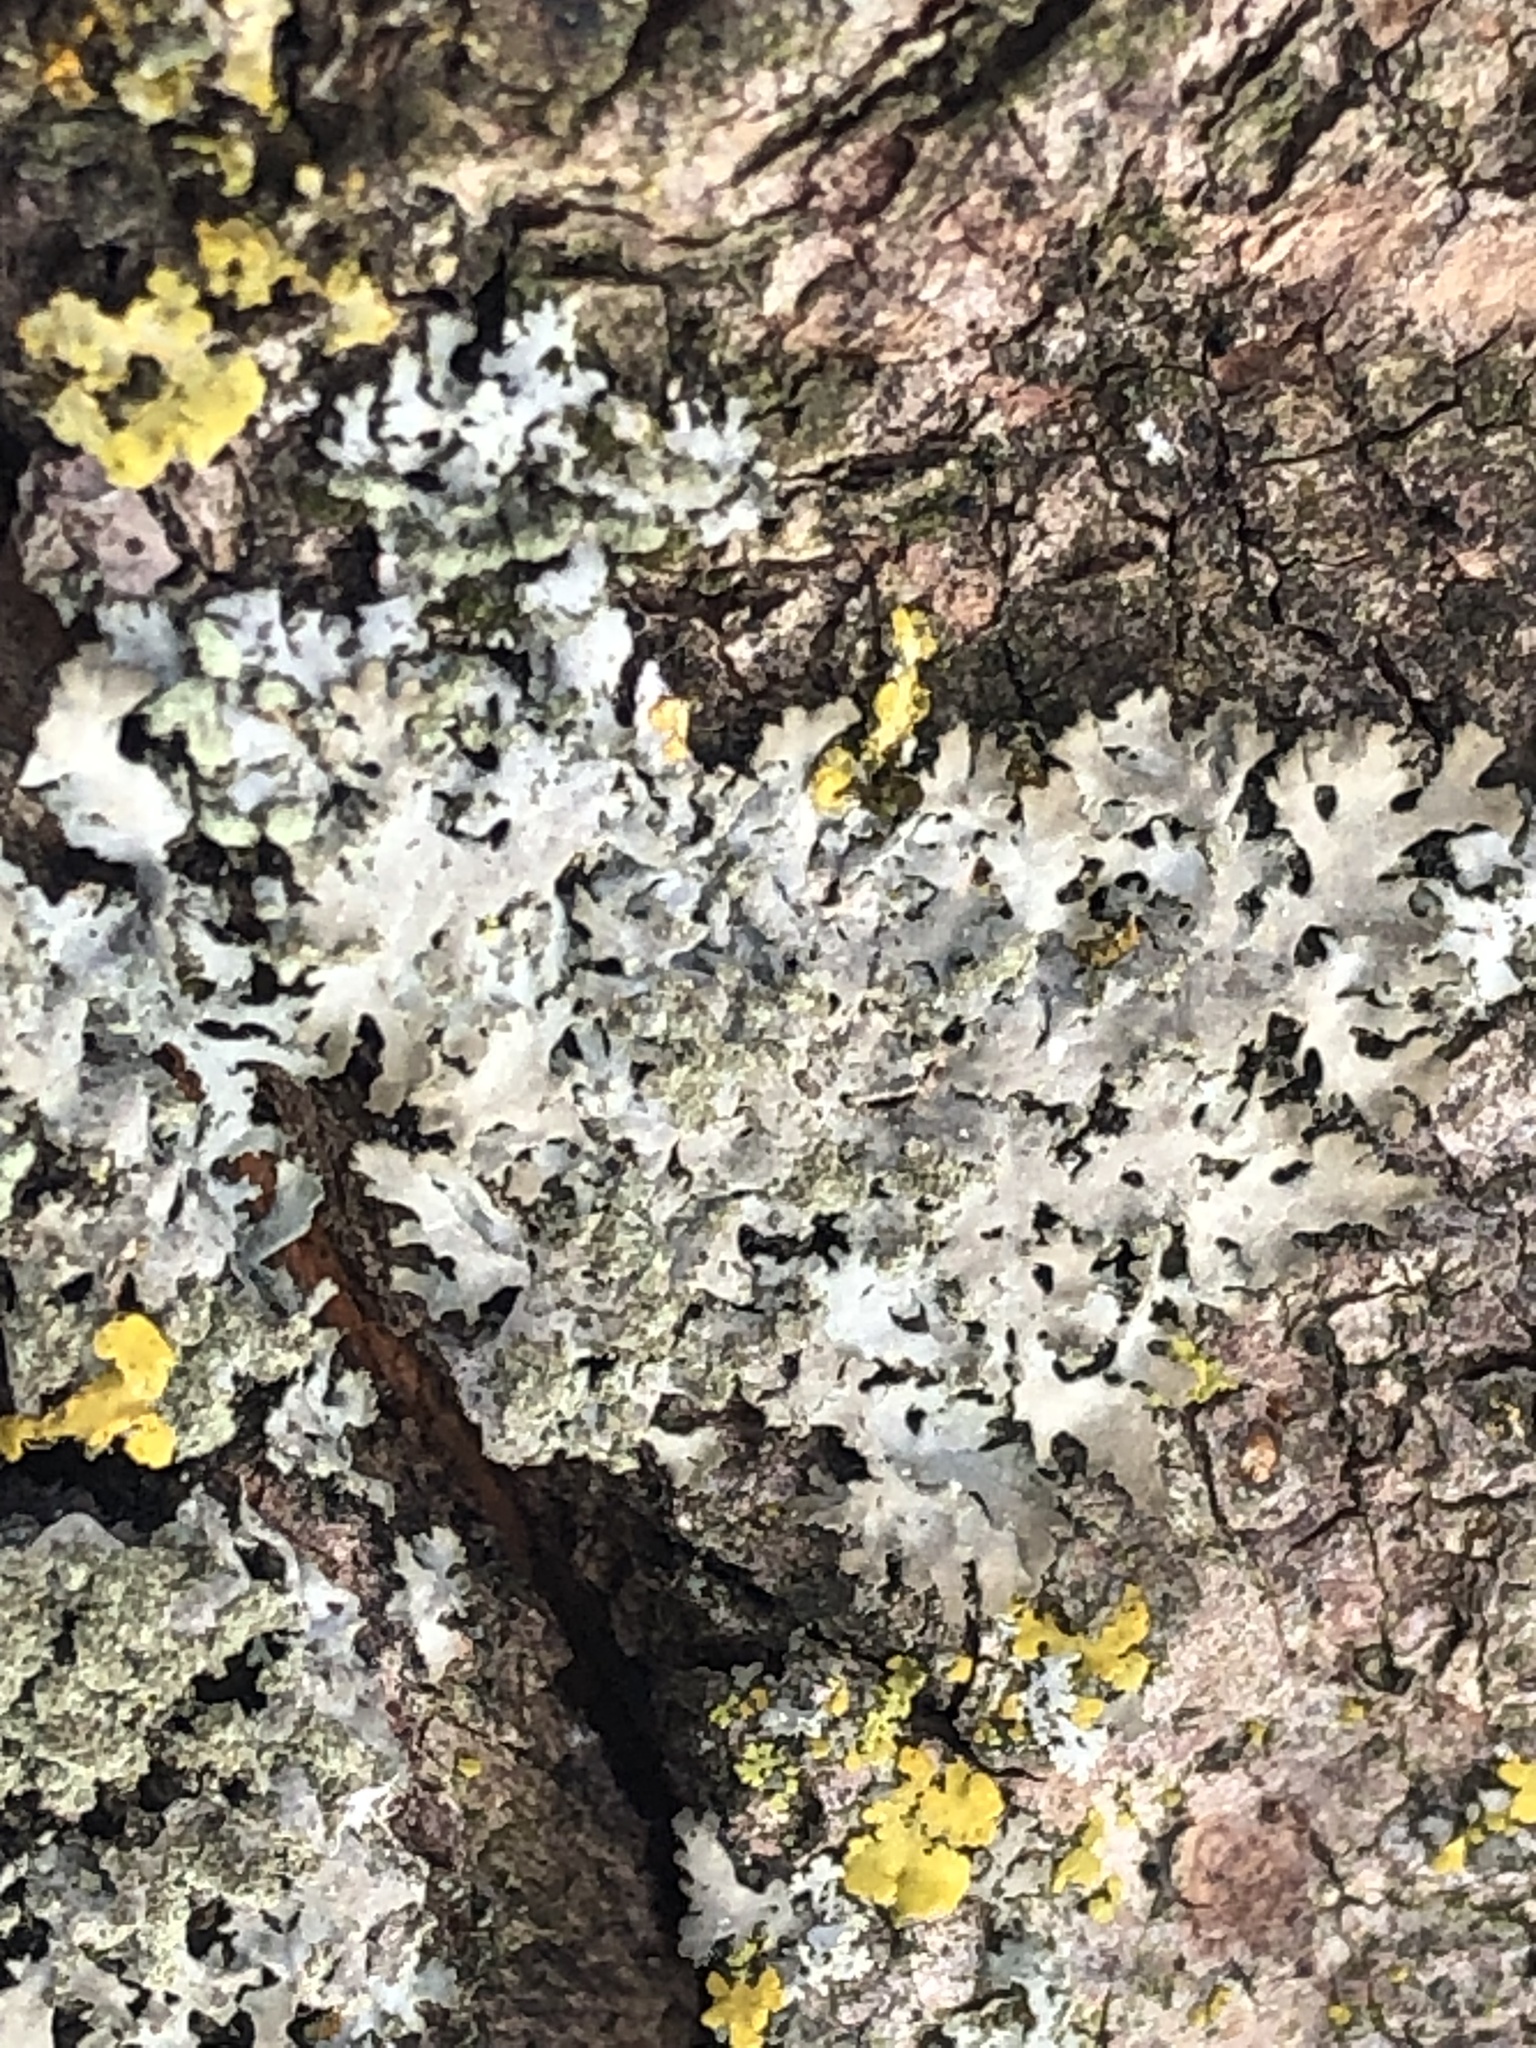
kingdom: Fungi
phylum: Ascomycota
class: Lecanoromycetes
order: Caliciales
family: Physciaceae
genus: Physciella
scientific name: Physciella melanchra
